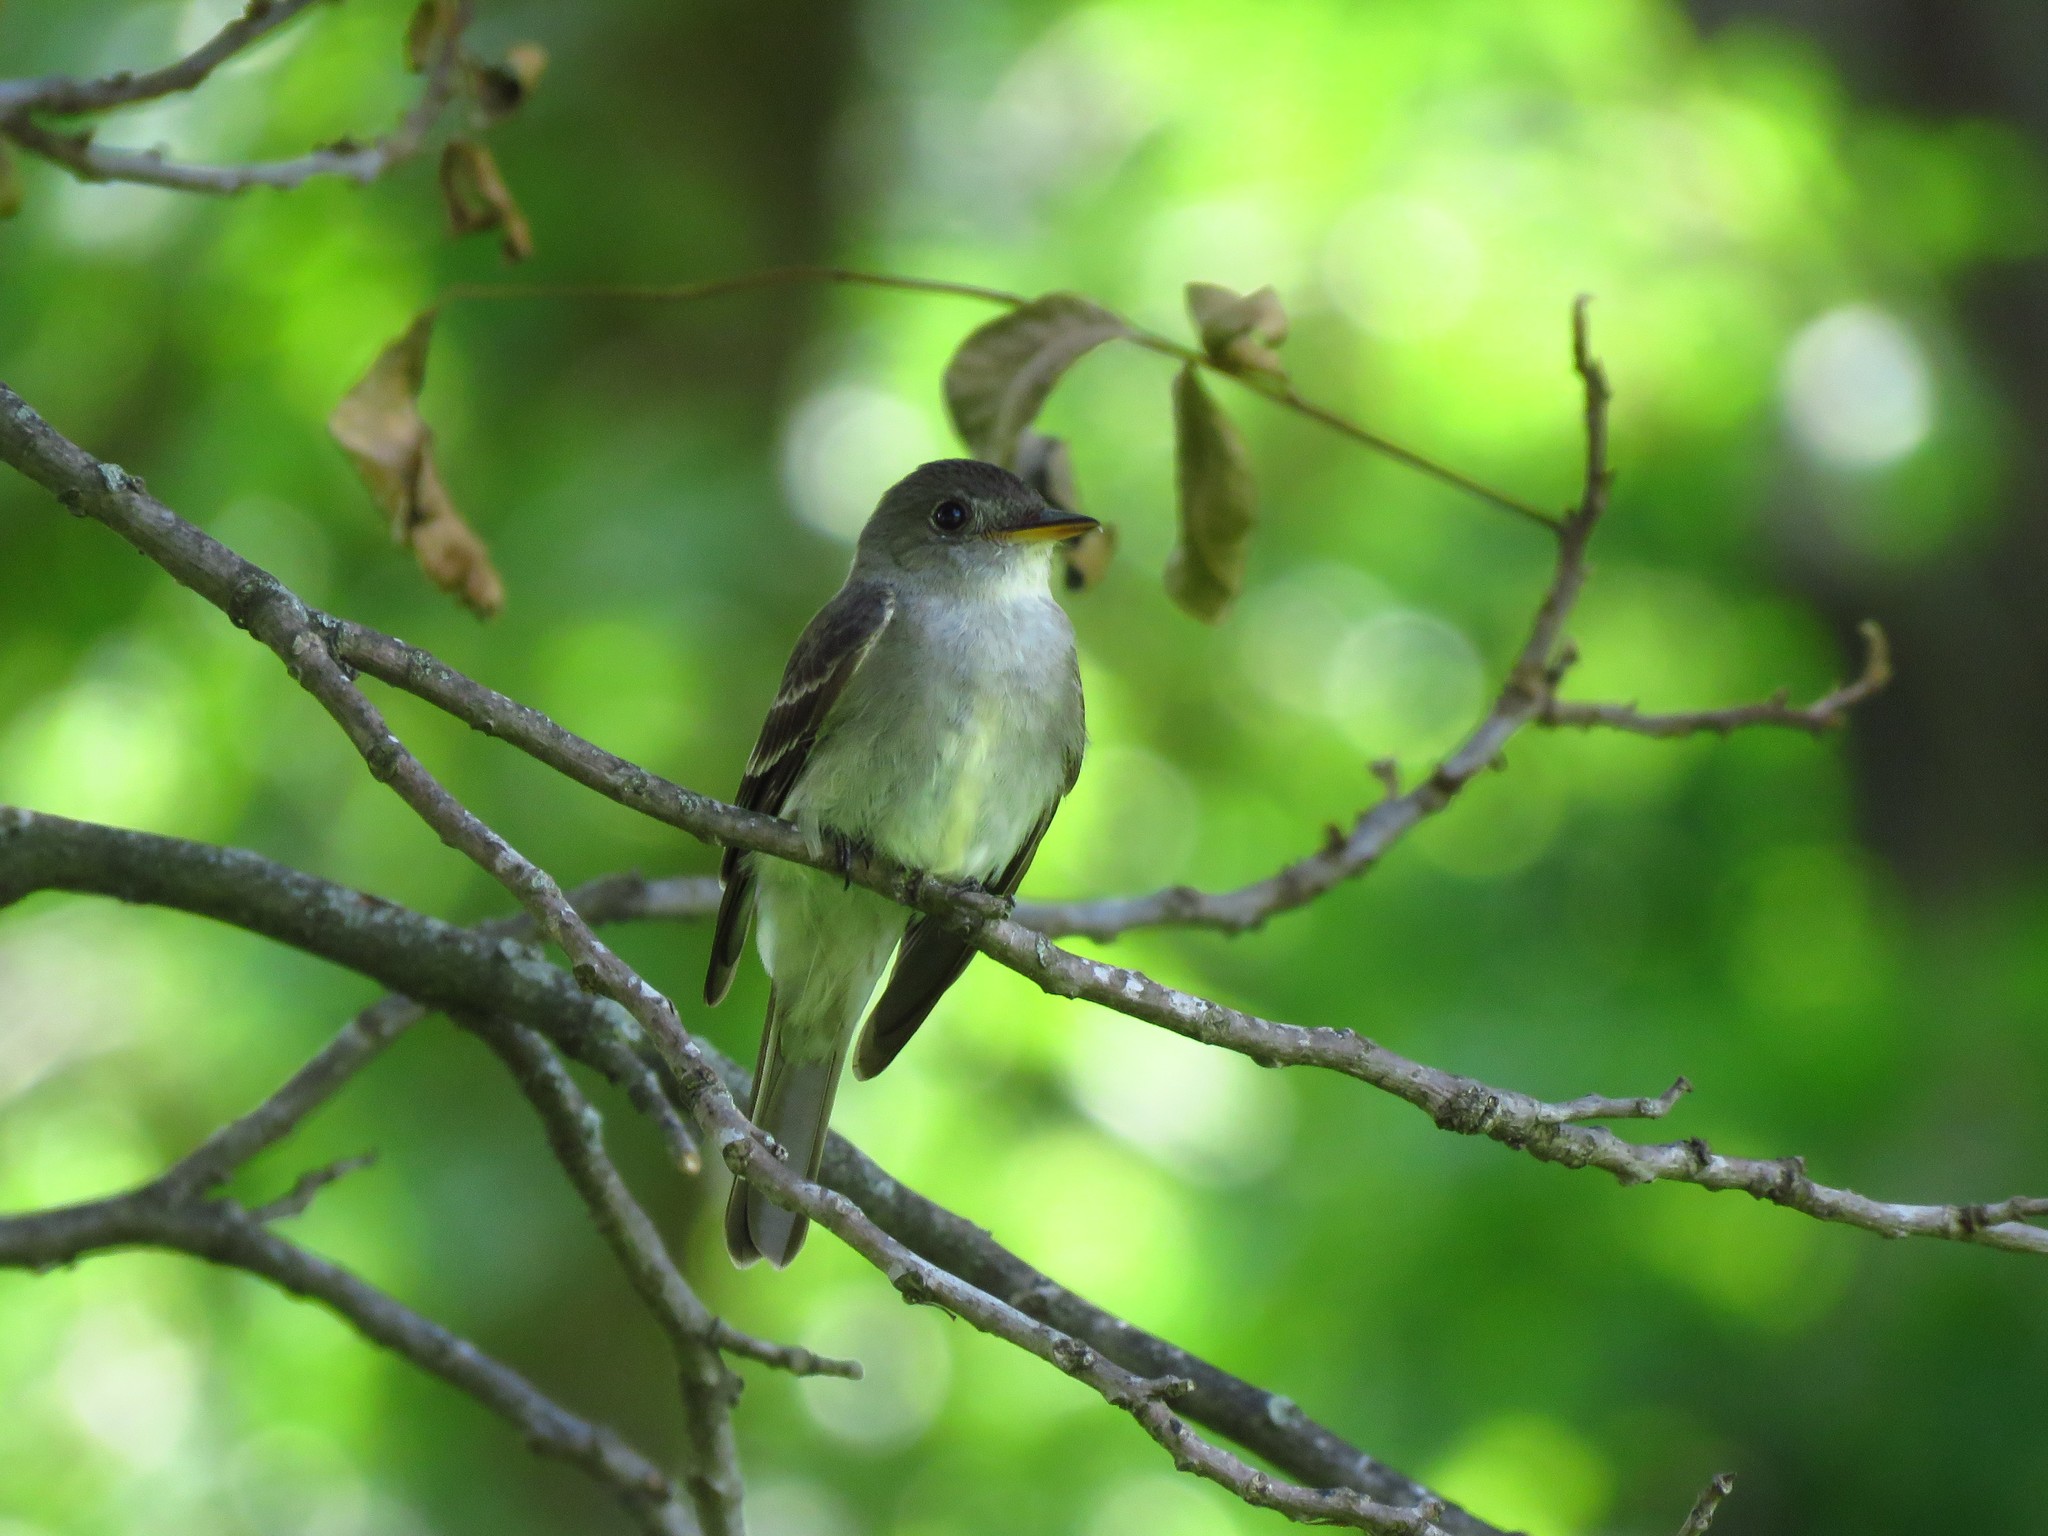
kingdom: Animalia
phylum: Chordata
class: Aves
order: Passeriformes
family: Tyrannidae
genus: Contopus
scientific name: Contopus virens
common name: Eastern wood-pewee
